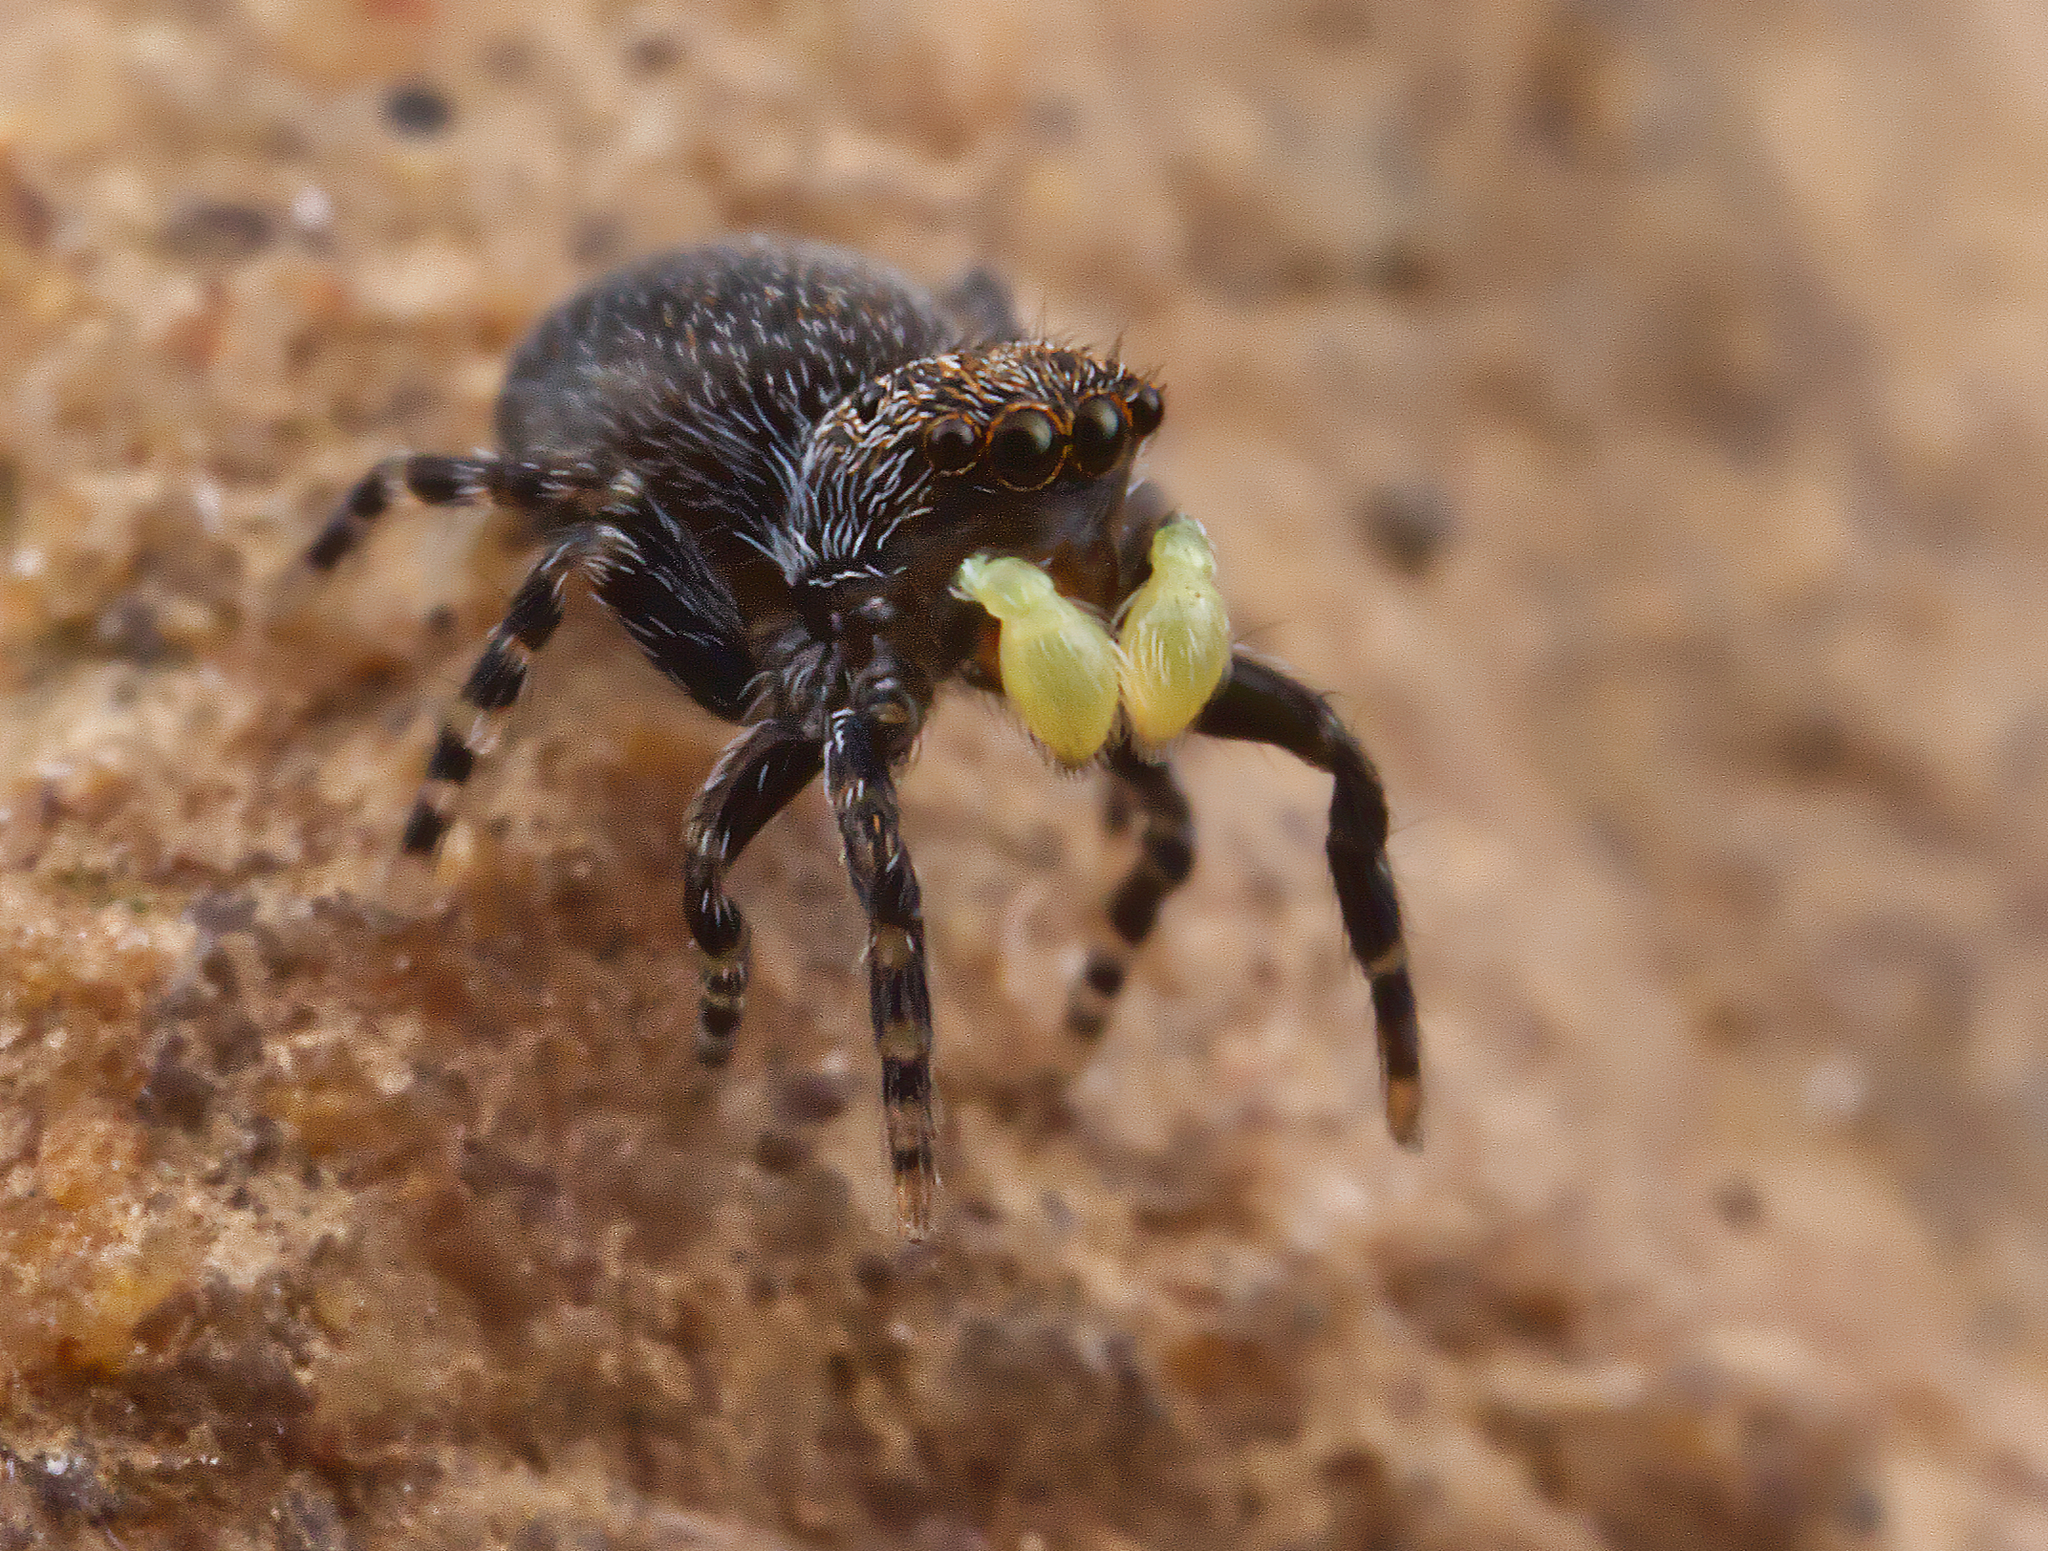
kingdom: Animalia
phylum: Arthropoda
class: Arachnida
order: Araneae
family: Salticidae
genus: Talavera
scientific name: Talavera minuta
